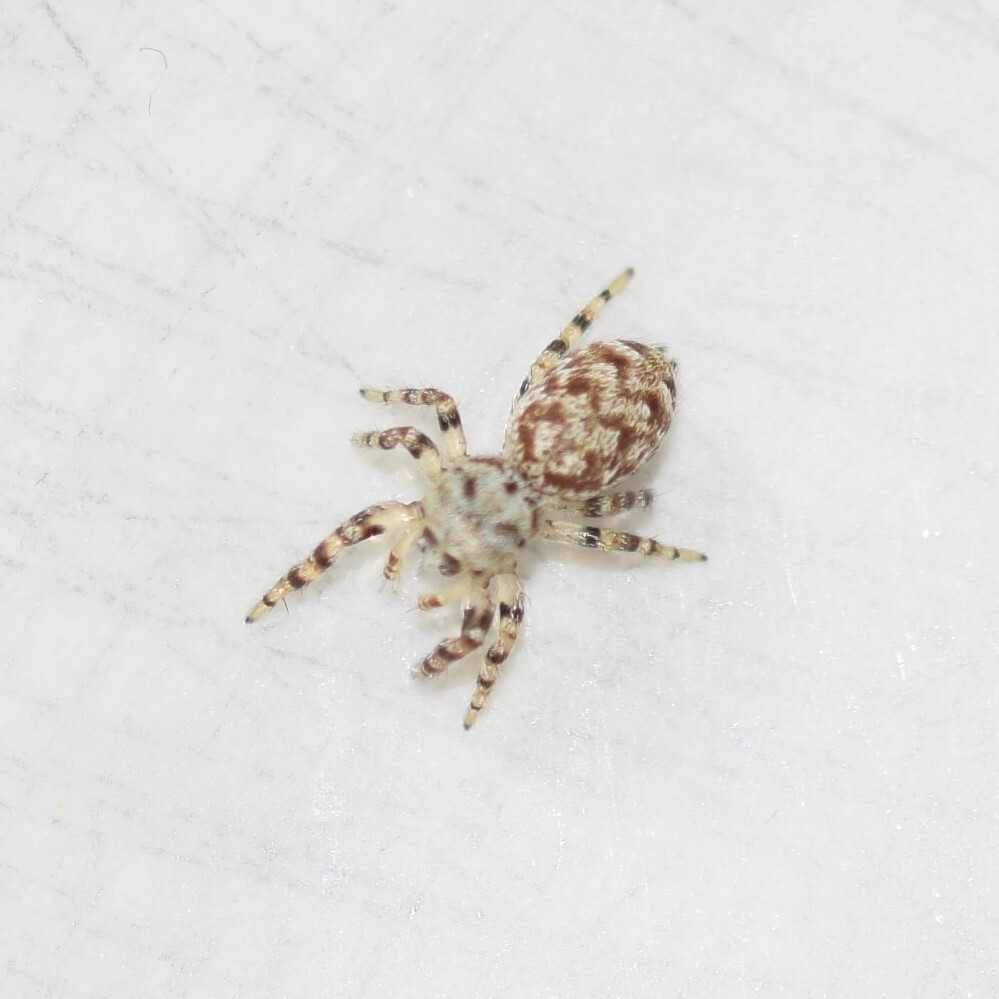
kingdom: Animalia
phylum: Arthropoda
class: Arachnida
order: Araneae
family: Salticidae
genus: Pelegrina
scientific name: Pelegrina galathea
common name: Jumping spiders
